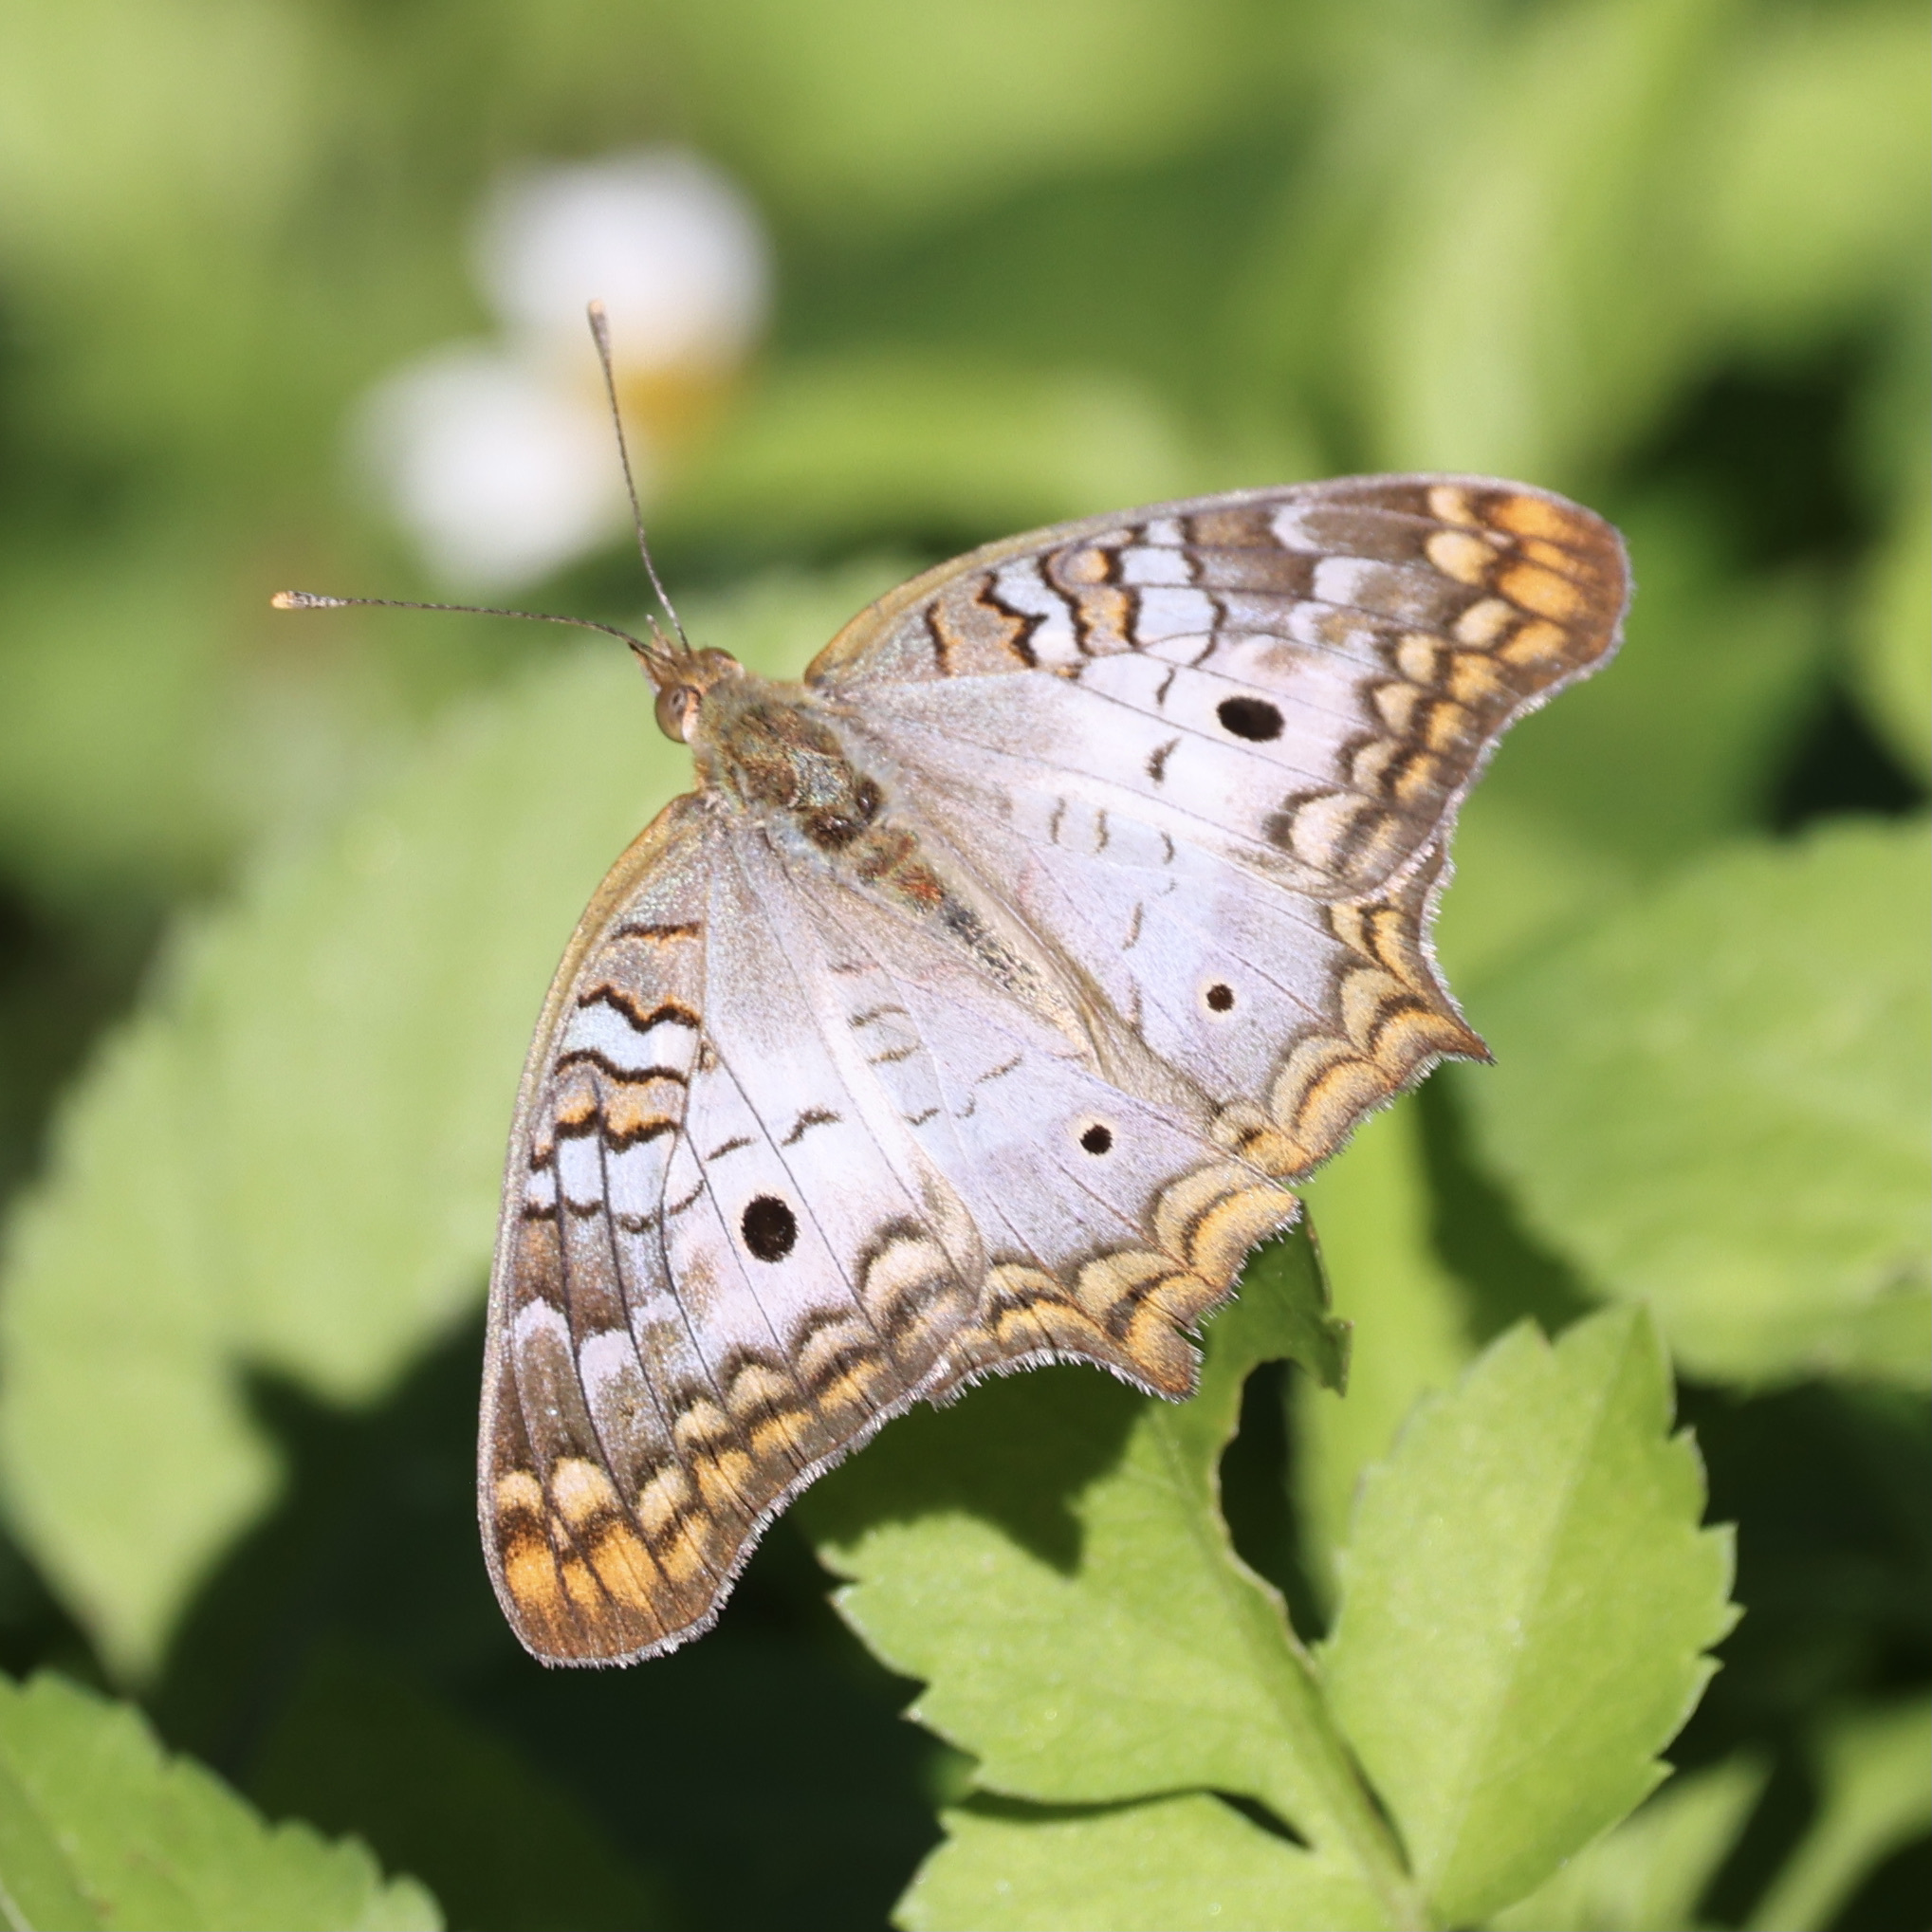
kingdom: Animalia
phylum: Arthropoda
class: Insecta
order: Lepidoptera
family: Nymphalidae
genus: Anartia
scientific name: Anartia jatrophae
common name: White peacock
